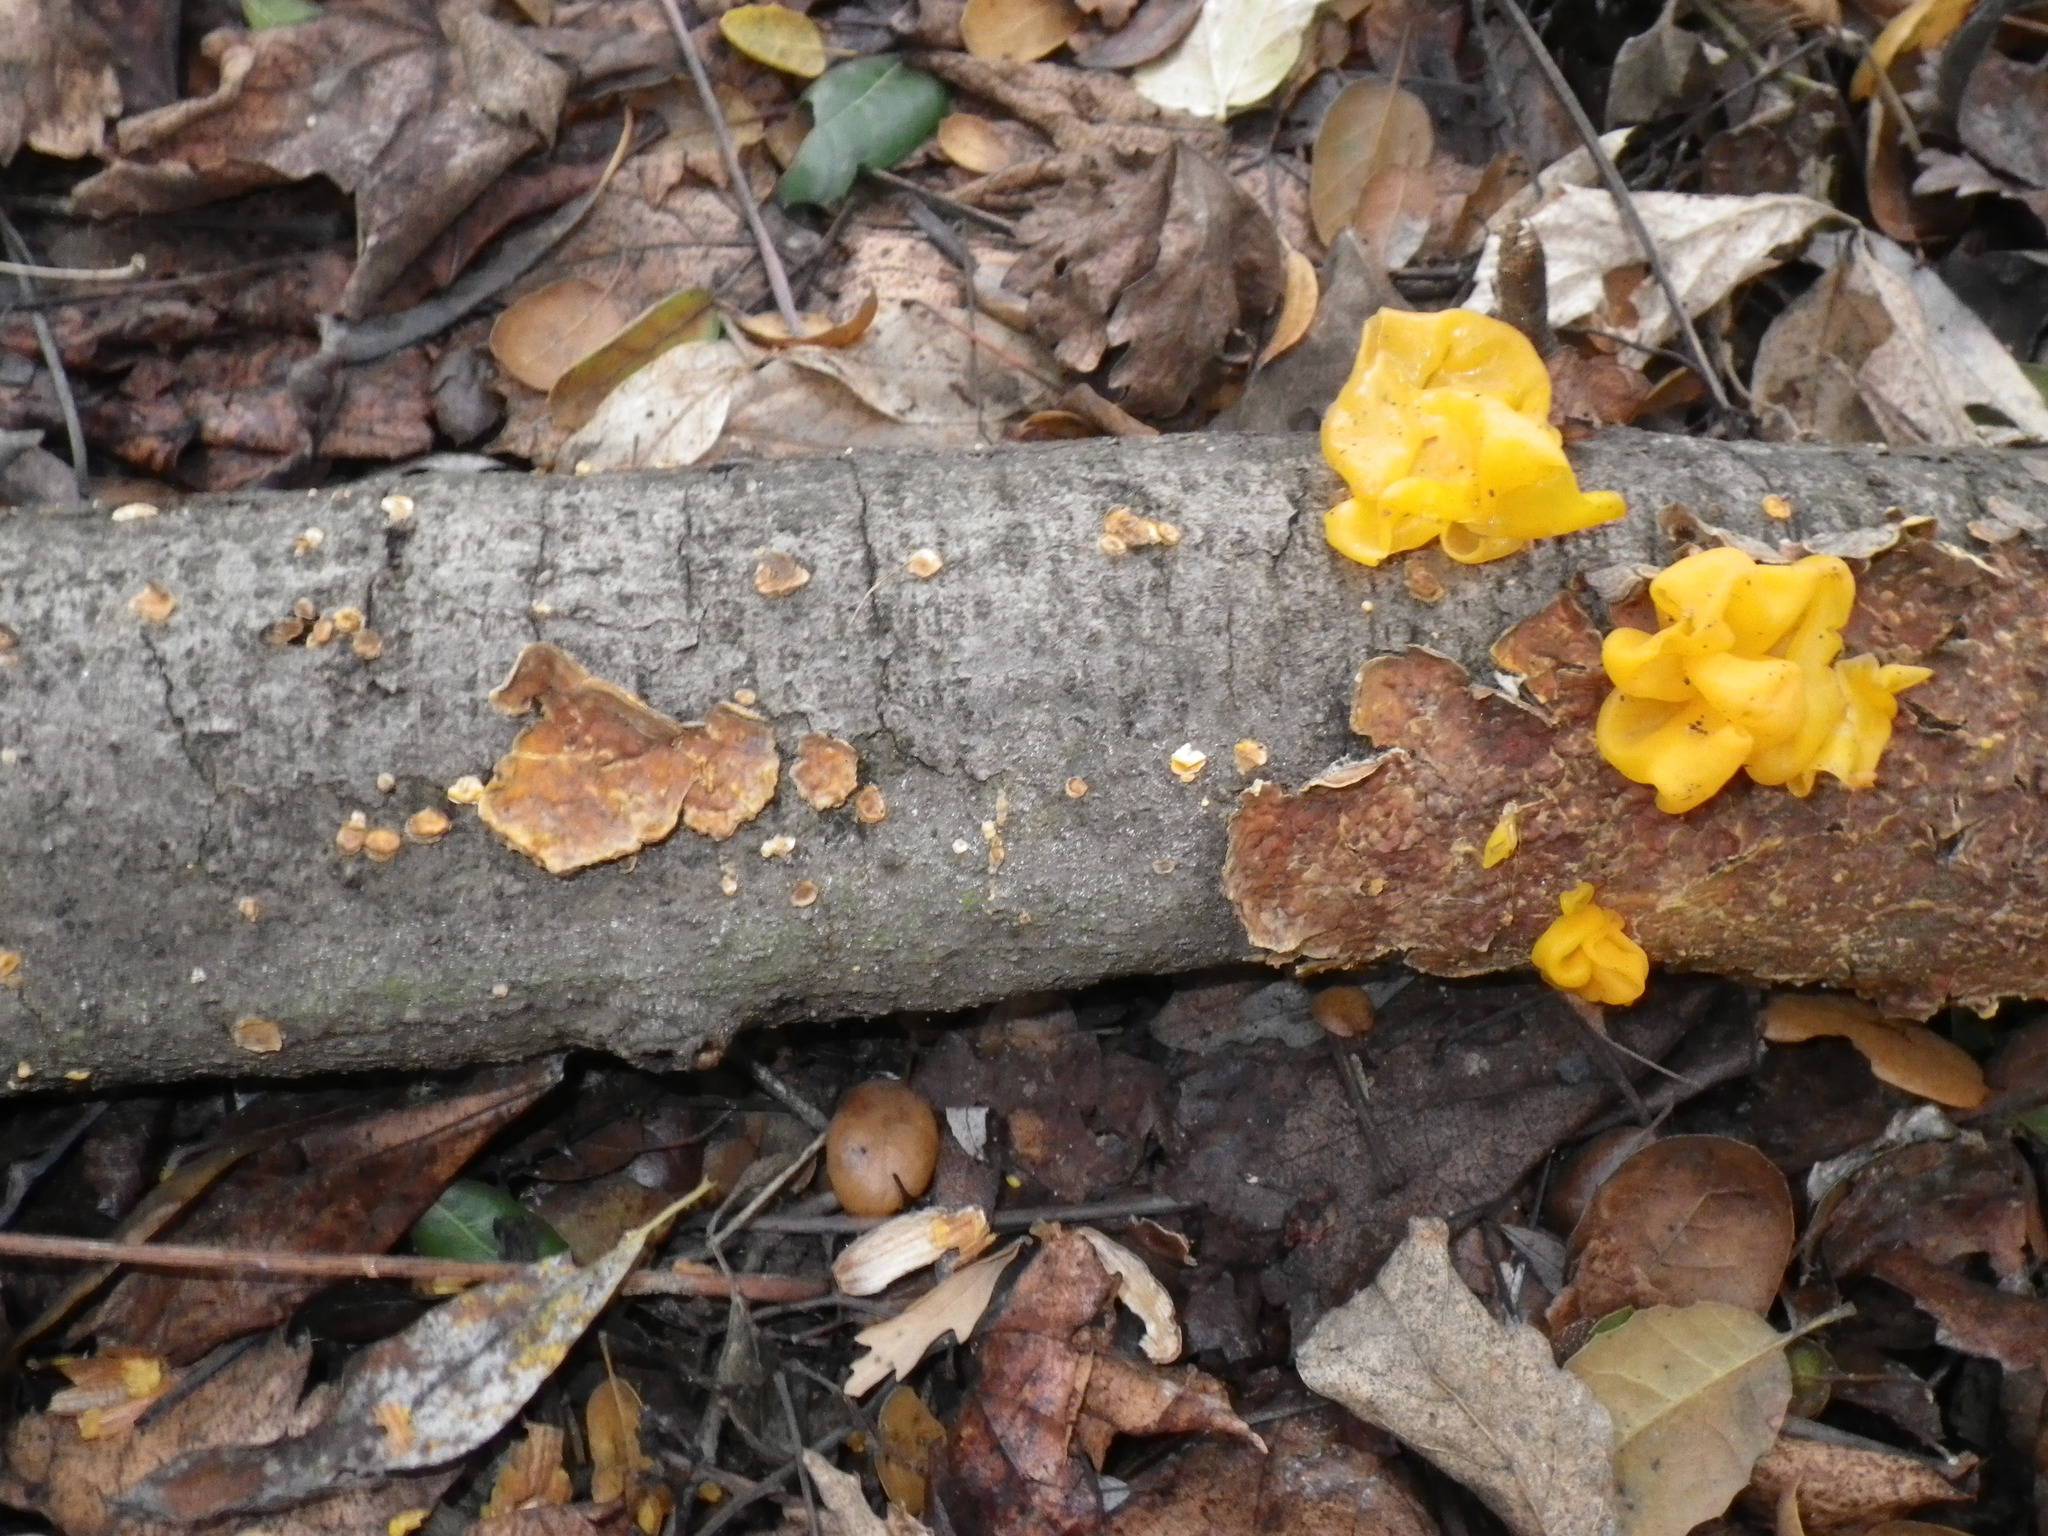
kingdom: Fungi
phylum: Basidiomycota
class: Tremellomycetes
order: Tremellales
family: Naemateliaceae
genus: Naematelia
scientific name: Naematelia aurantia
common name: Golden ear
